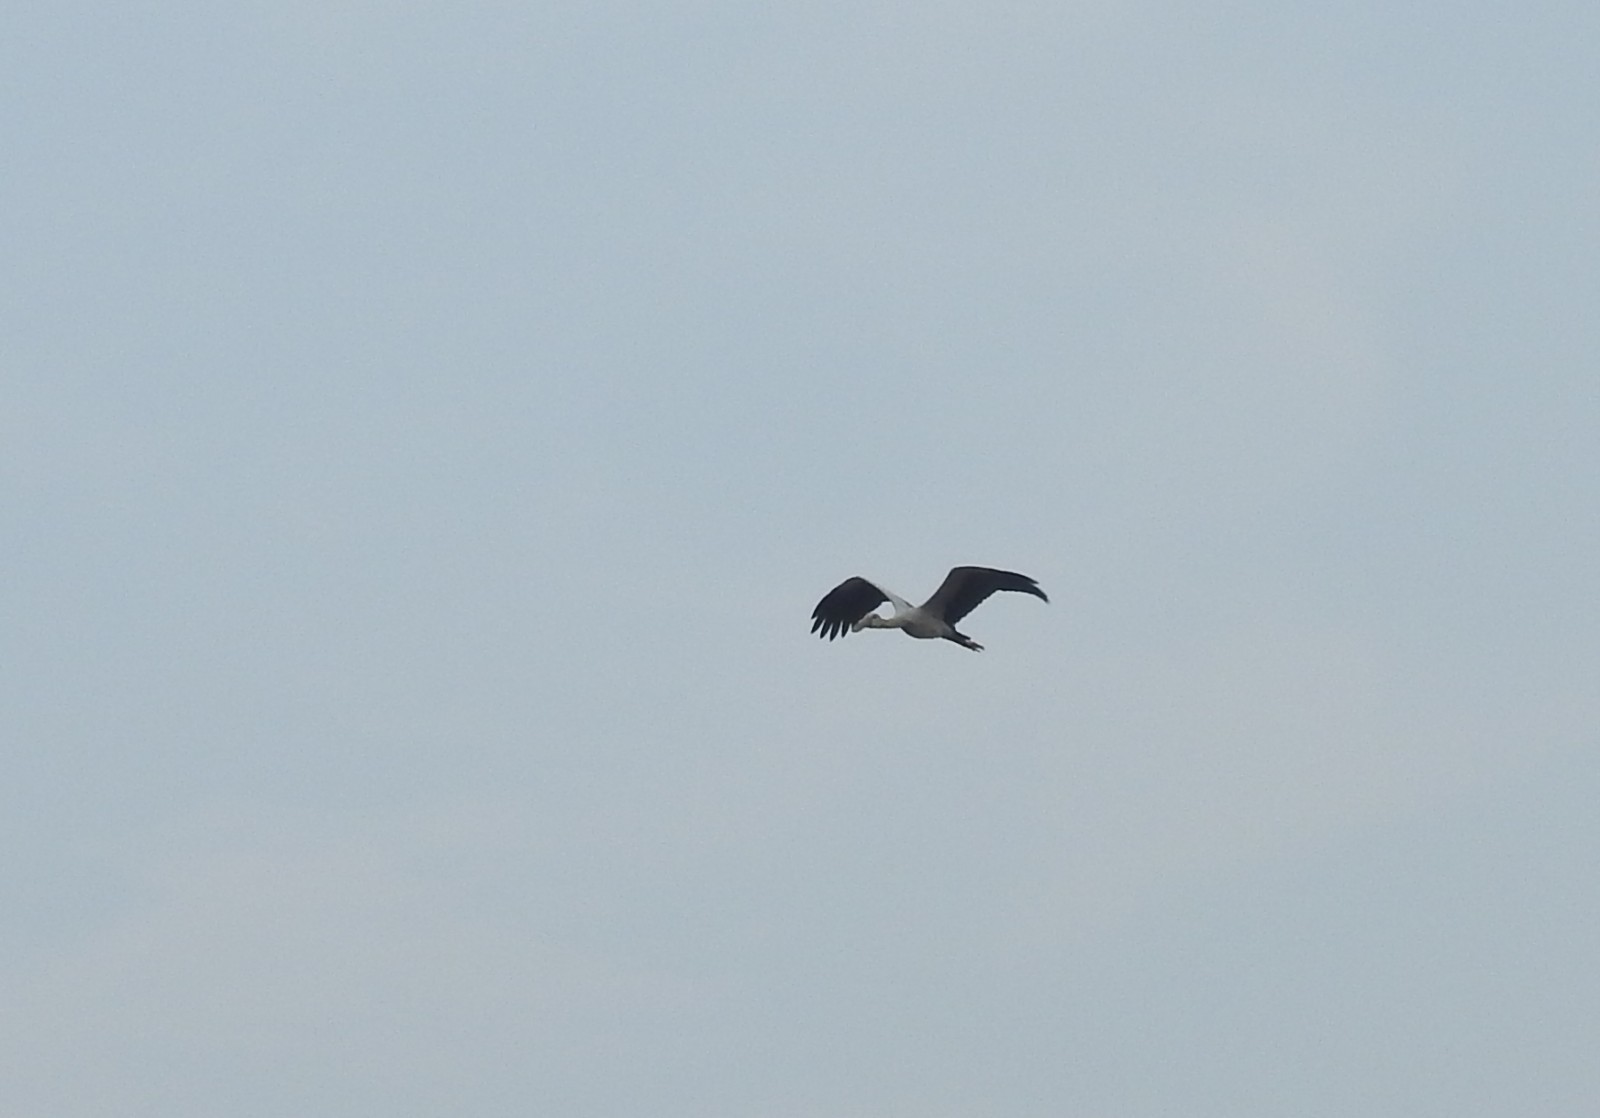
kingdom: Animalia
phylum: Chordata
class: Aves
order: Ciconiiformes
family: Ciconiidae
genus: Anastomus
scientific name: Anastomus oscitans
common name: Asian openbill
